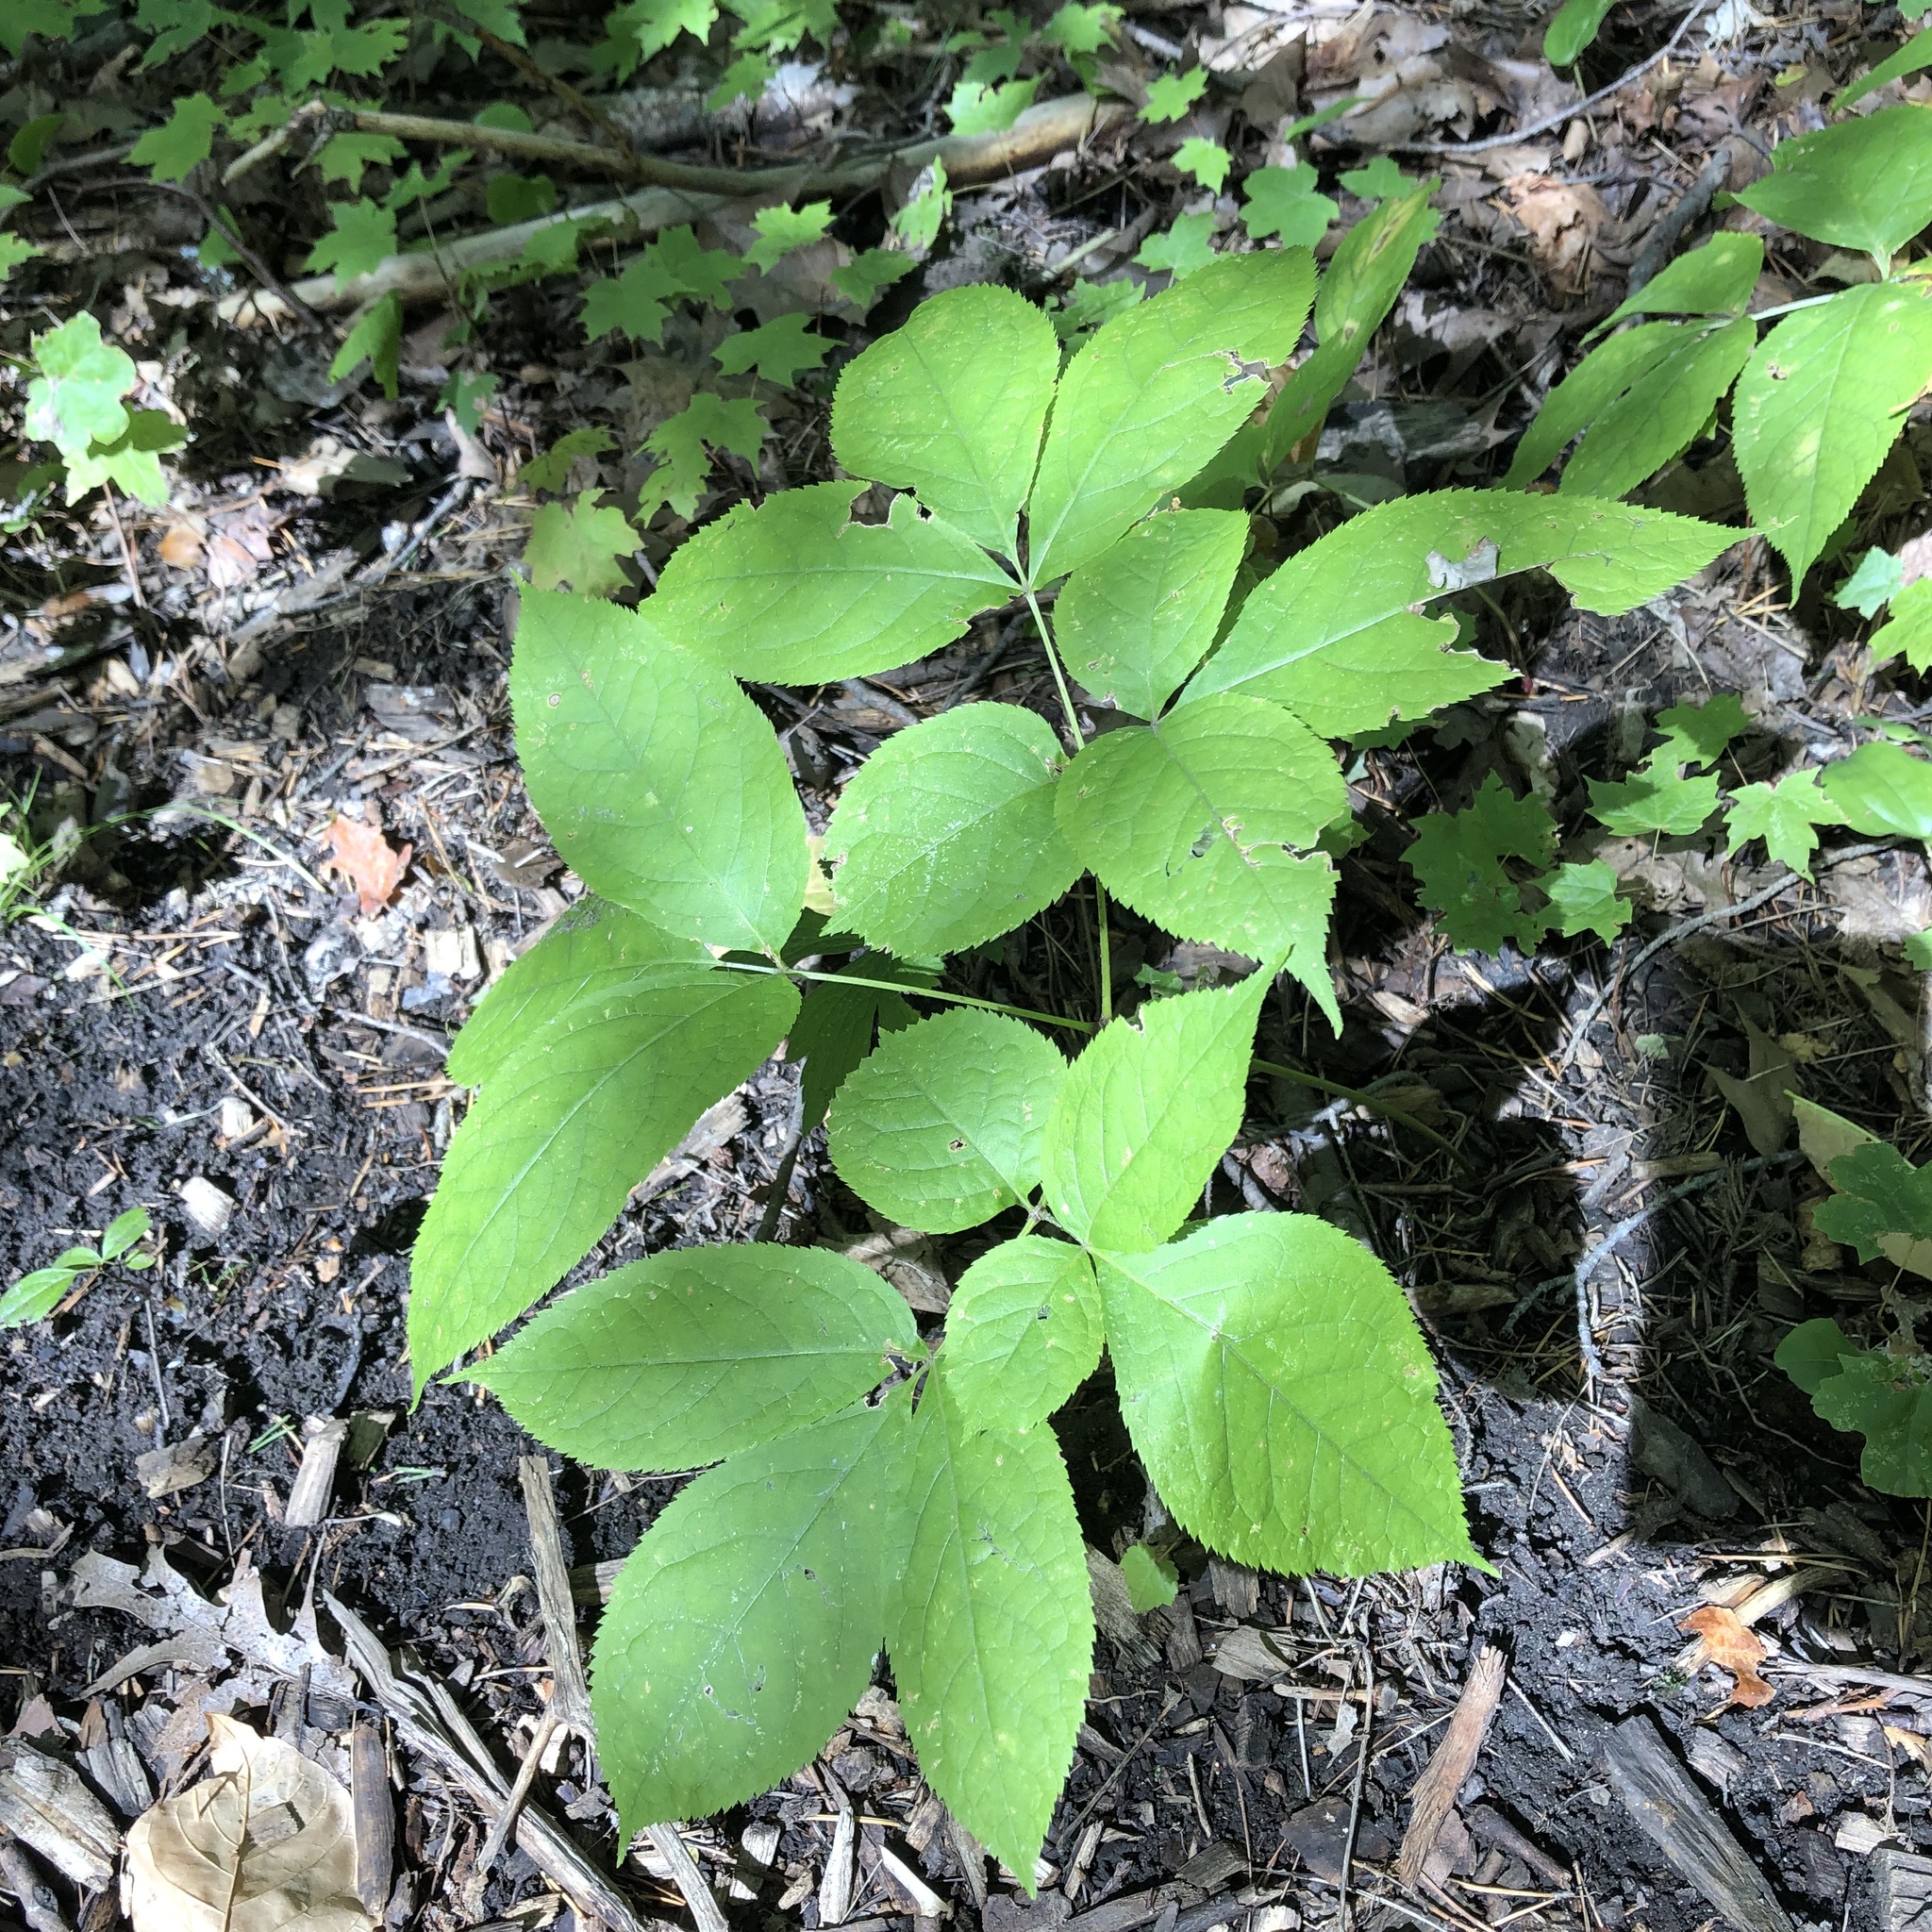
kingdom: Plantae
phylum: Tracheophyta
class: Magnoliopsida
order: Apiales
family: Araliaceae
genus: Aralia
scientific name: Aralia nudicaulis
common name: Wild sarsaparilla
